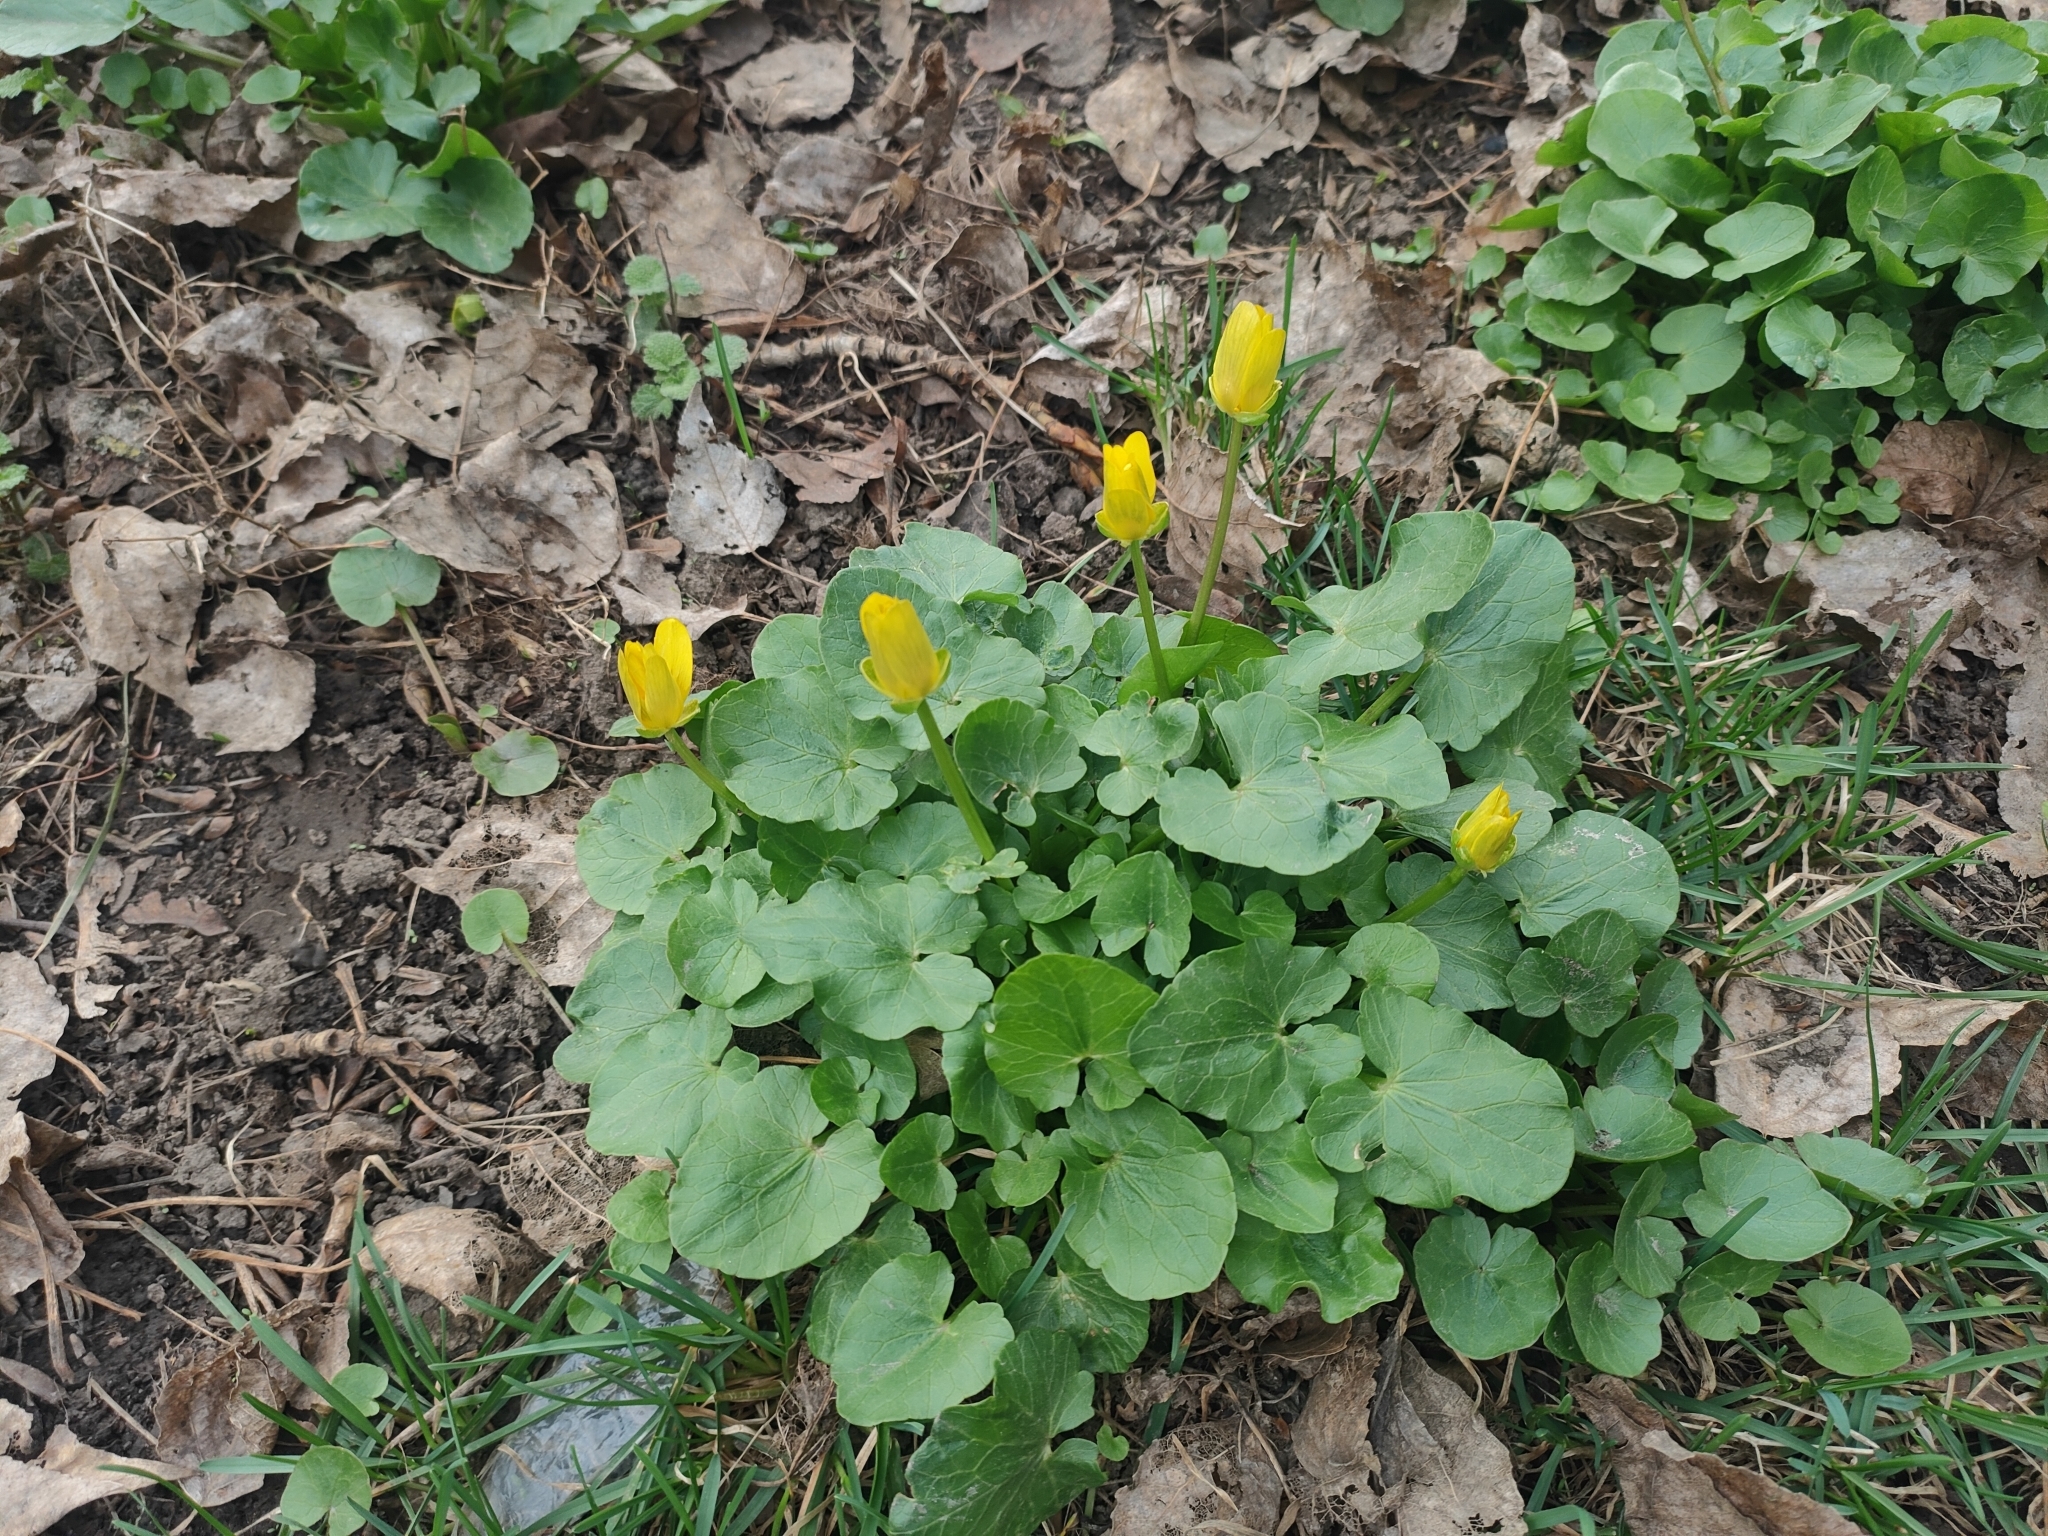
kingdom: Plantae
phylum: Tracheophyta
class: Magnoliopsida
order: Ranunculales
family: Ranunculaceae
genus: Ficaria
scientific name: Ficaria verna
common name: Lesser celandine
